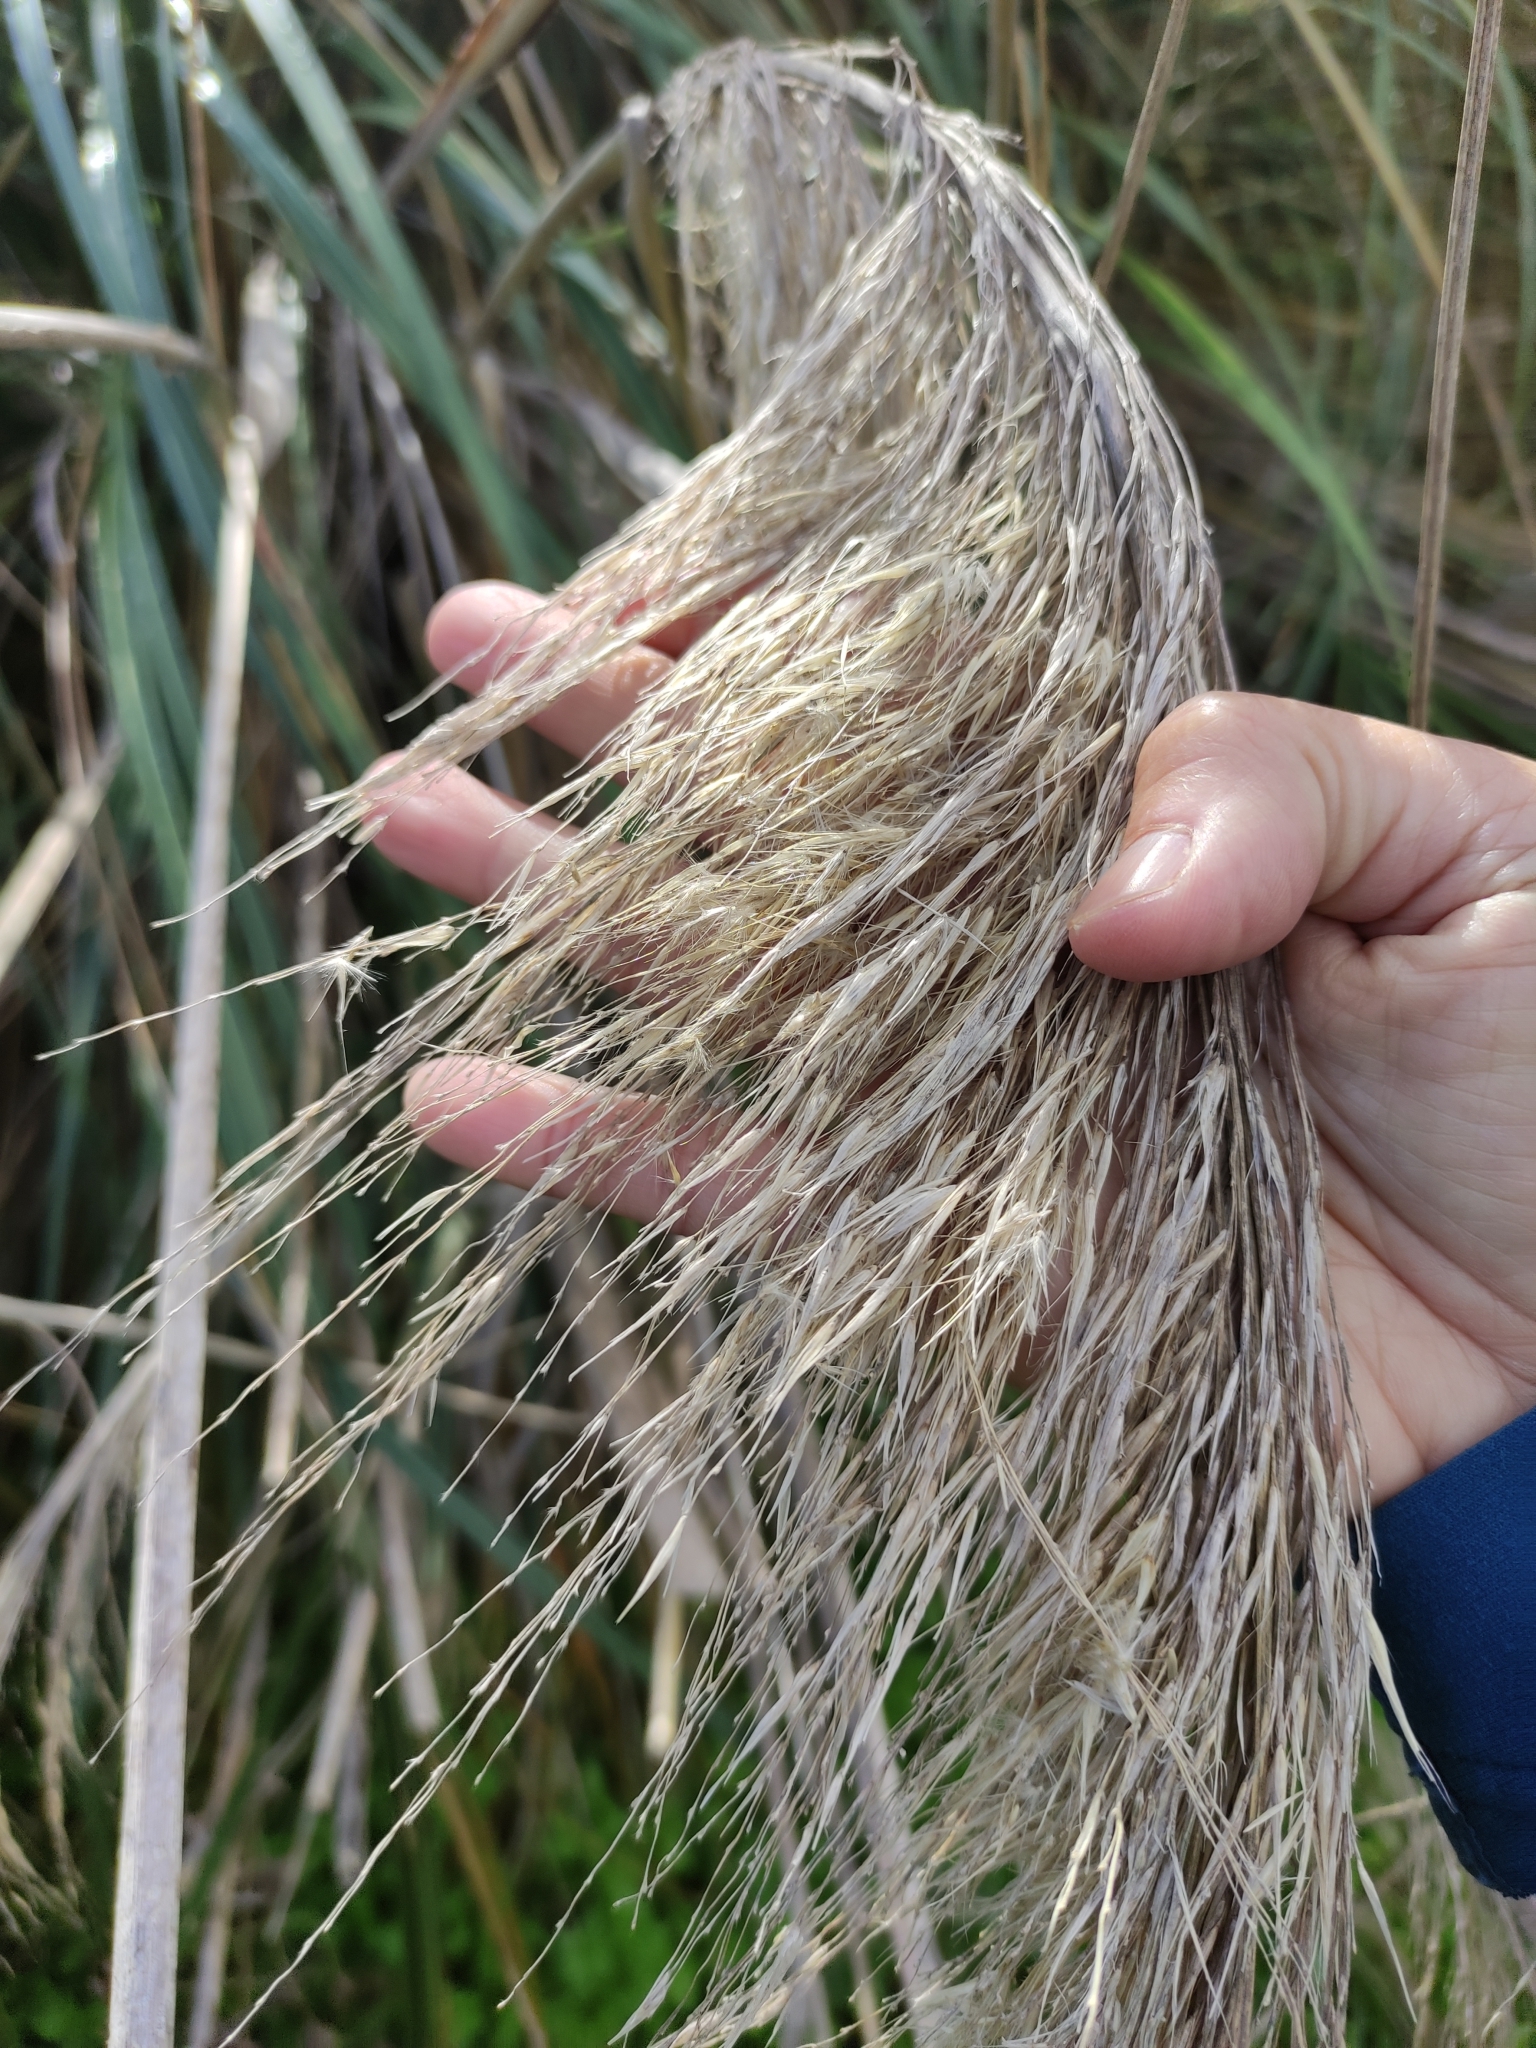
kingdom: Plantae
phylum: Tracheophyta
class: Liliopsida
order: Poales
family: Poaceae
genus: Austroderia
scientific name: Austroderia richardii
